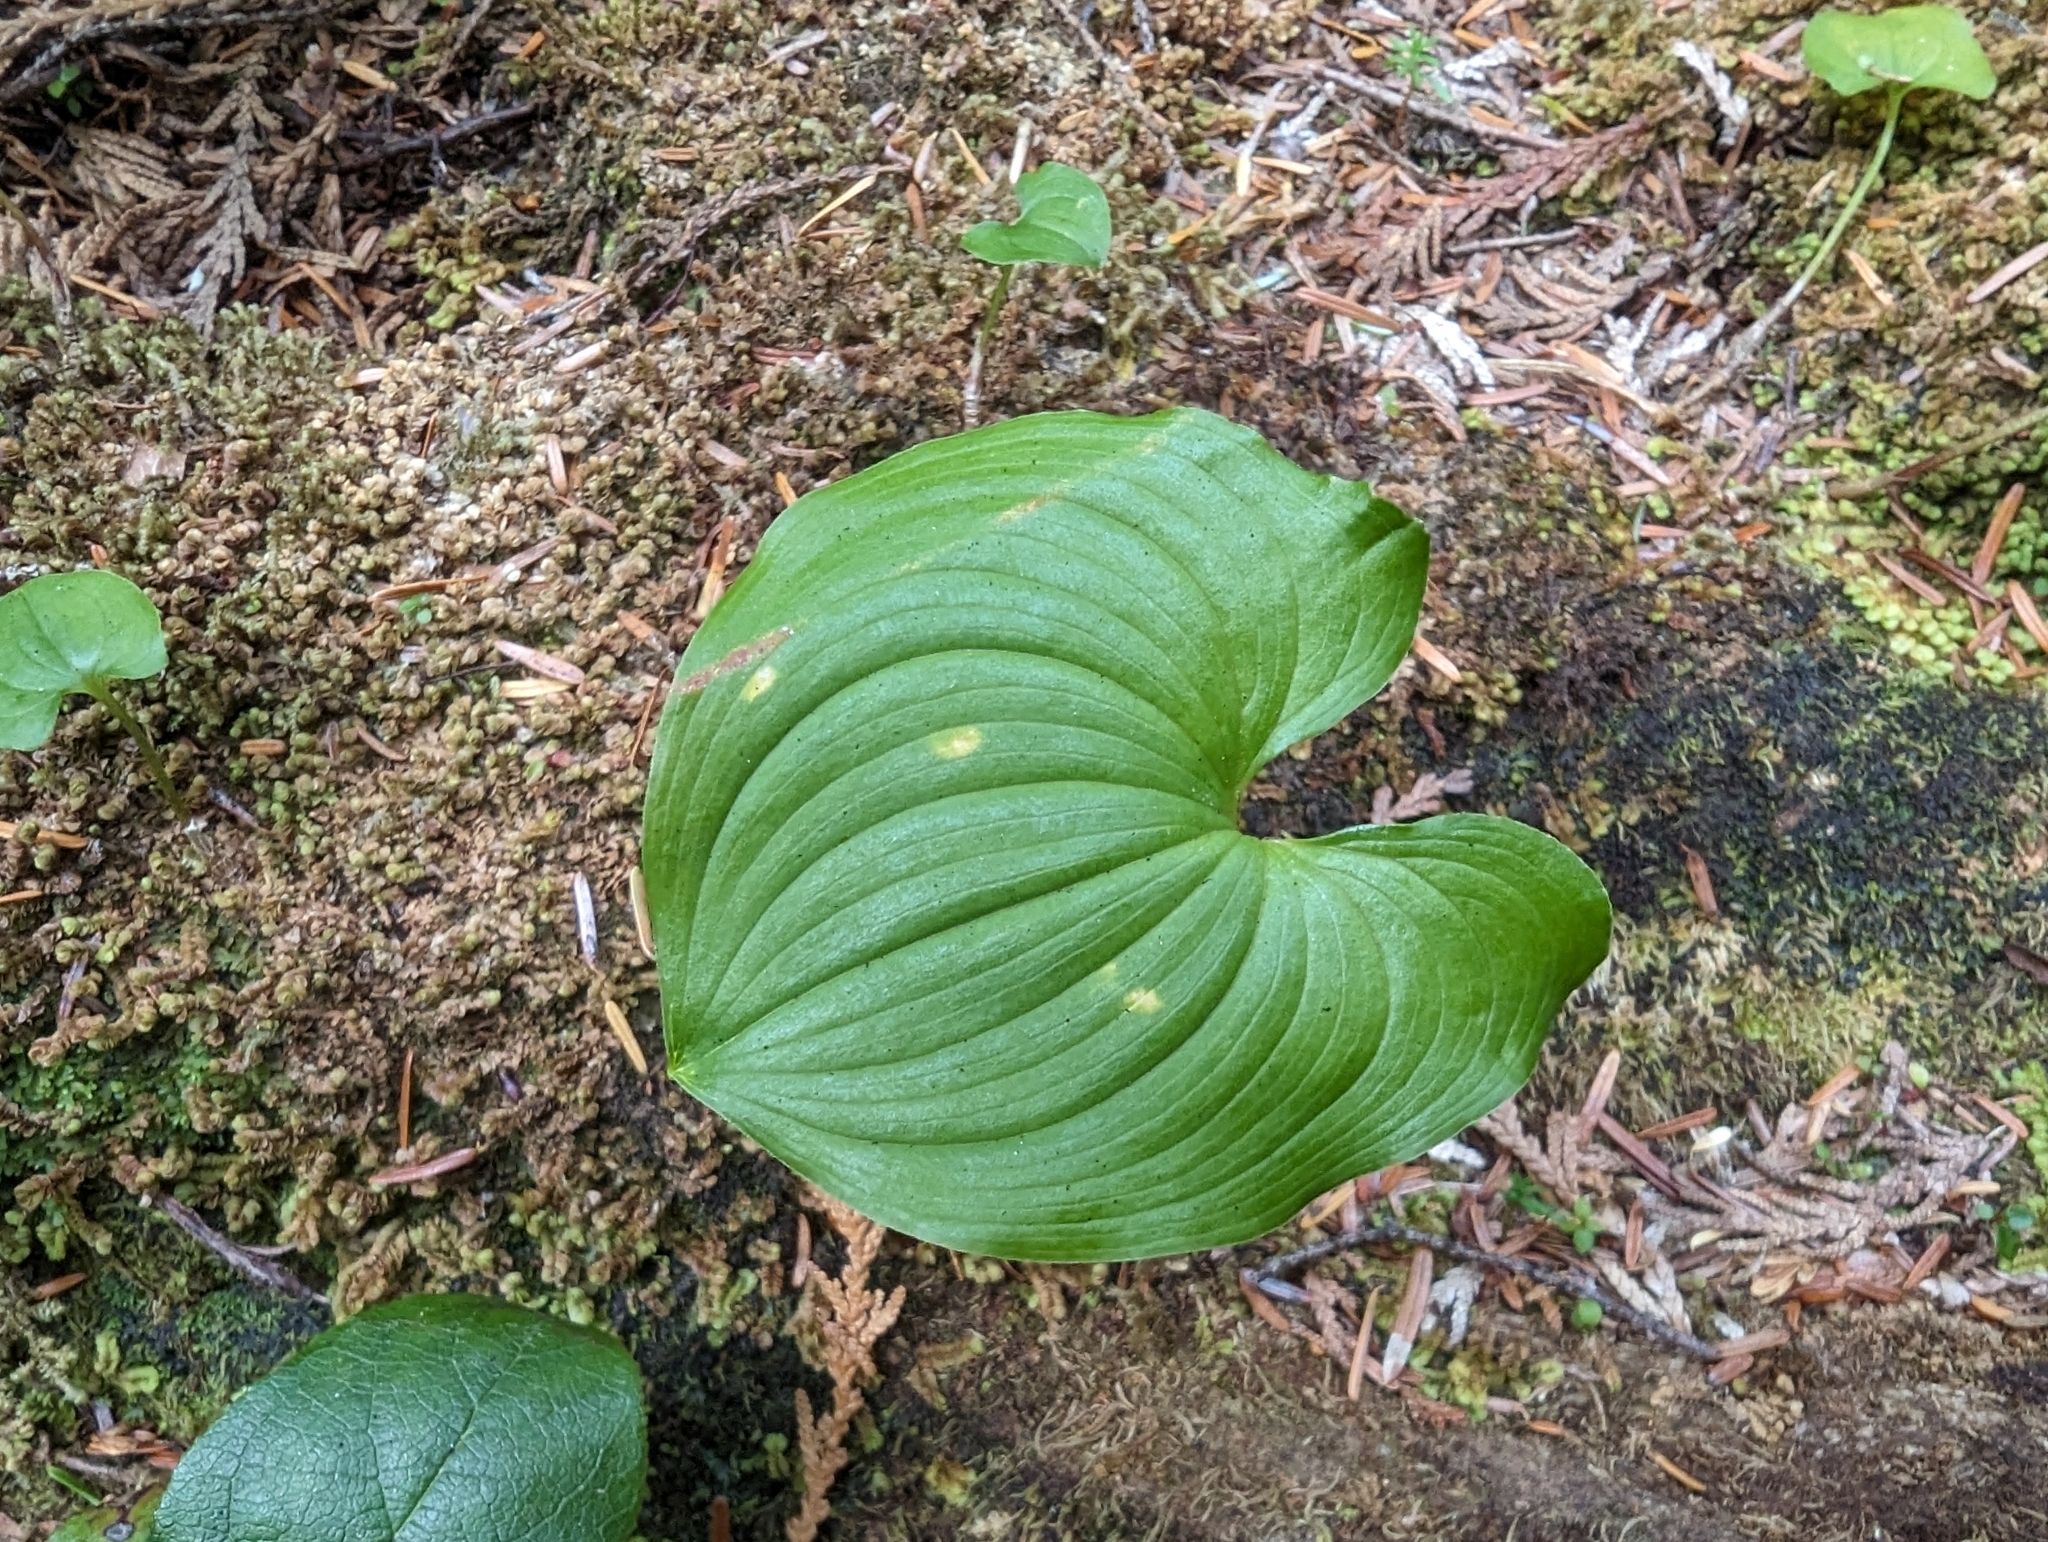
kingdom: Plantae
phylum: Tracheophyta
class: Liliopsida
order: Asparagales
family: Asparagaceae
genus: Maianthemum
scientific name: Maianthemum dilatatum
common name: False lily-of-the-valley
